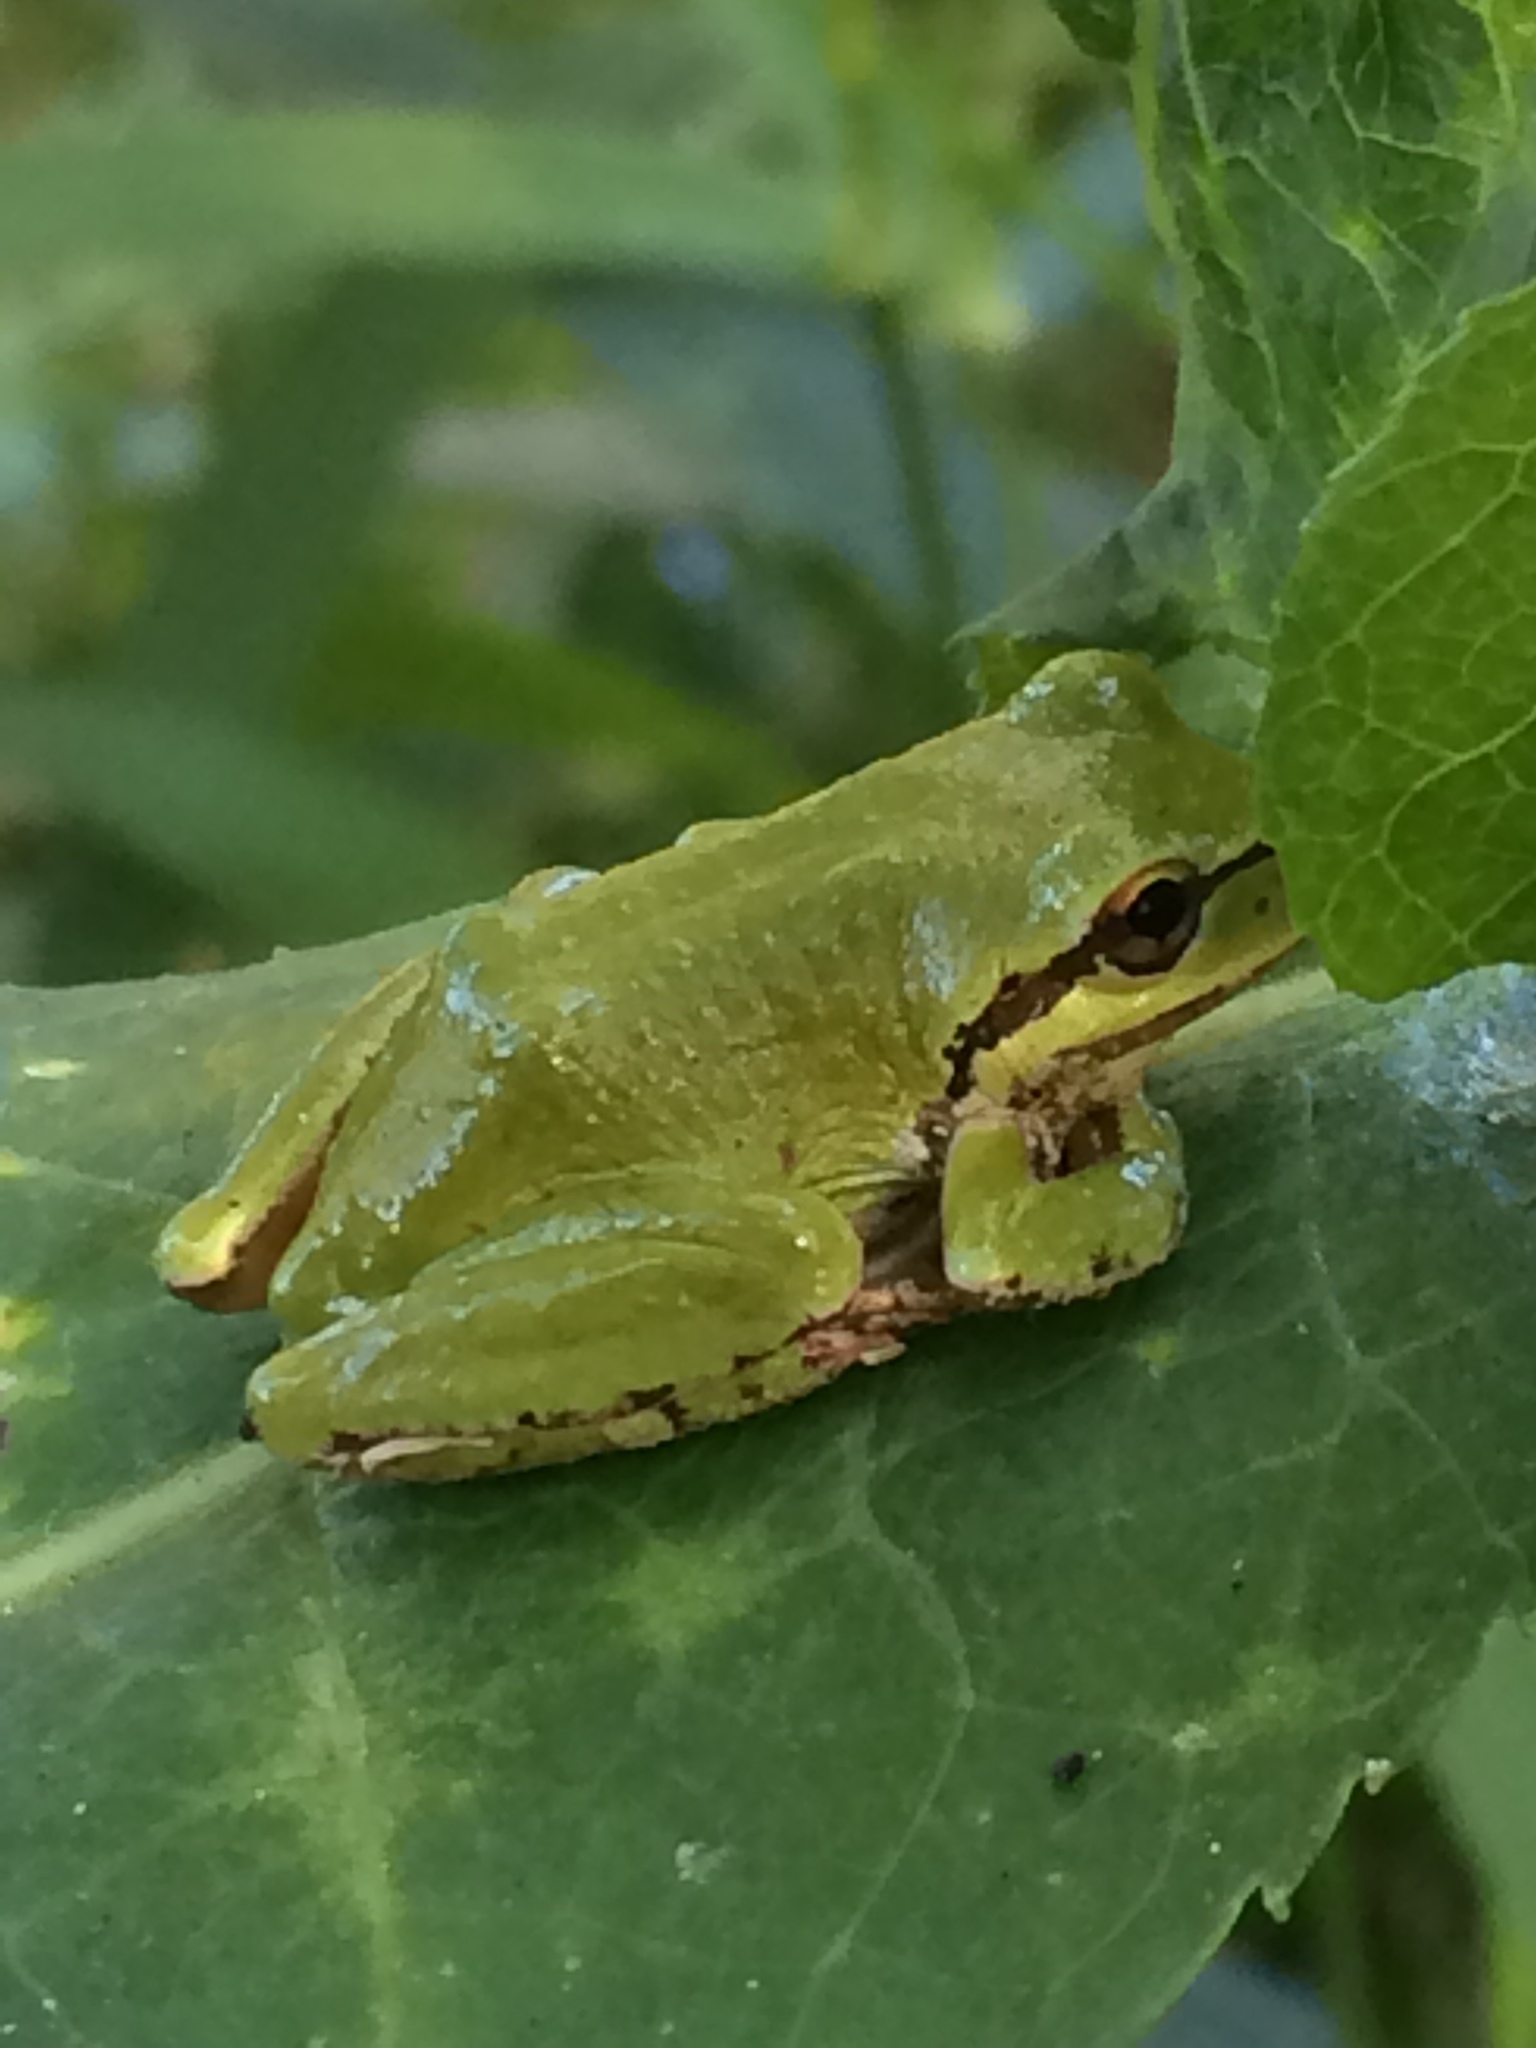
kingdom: Animalia
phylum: Chordata
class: Amphibia
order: Anura
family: Hylidae
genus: Pseudacris
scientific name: Pseudacris regilla
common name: Pacific chorus frog
